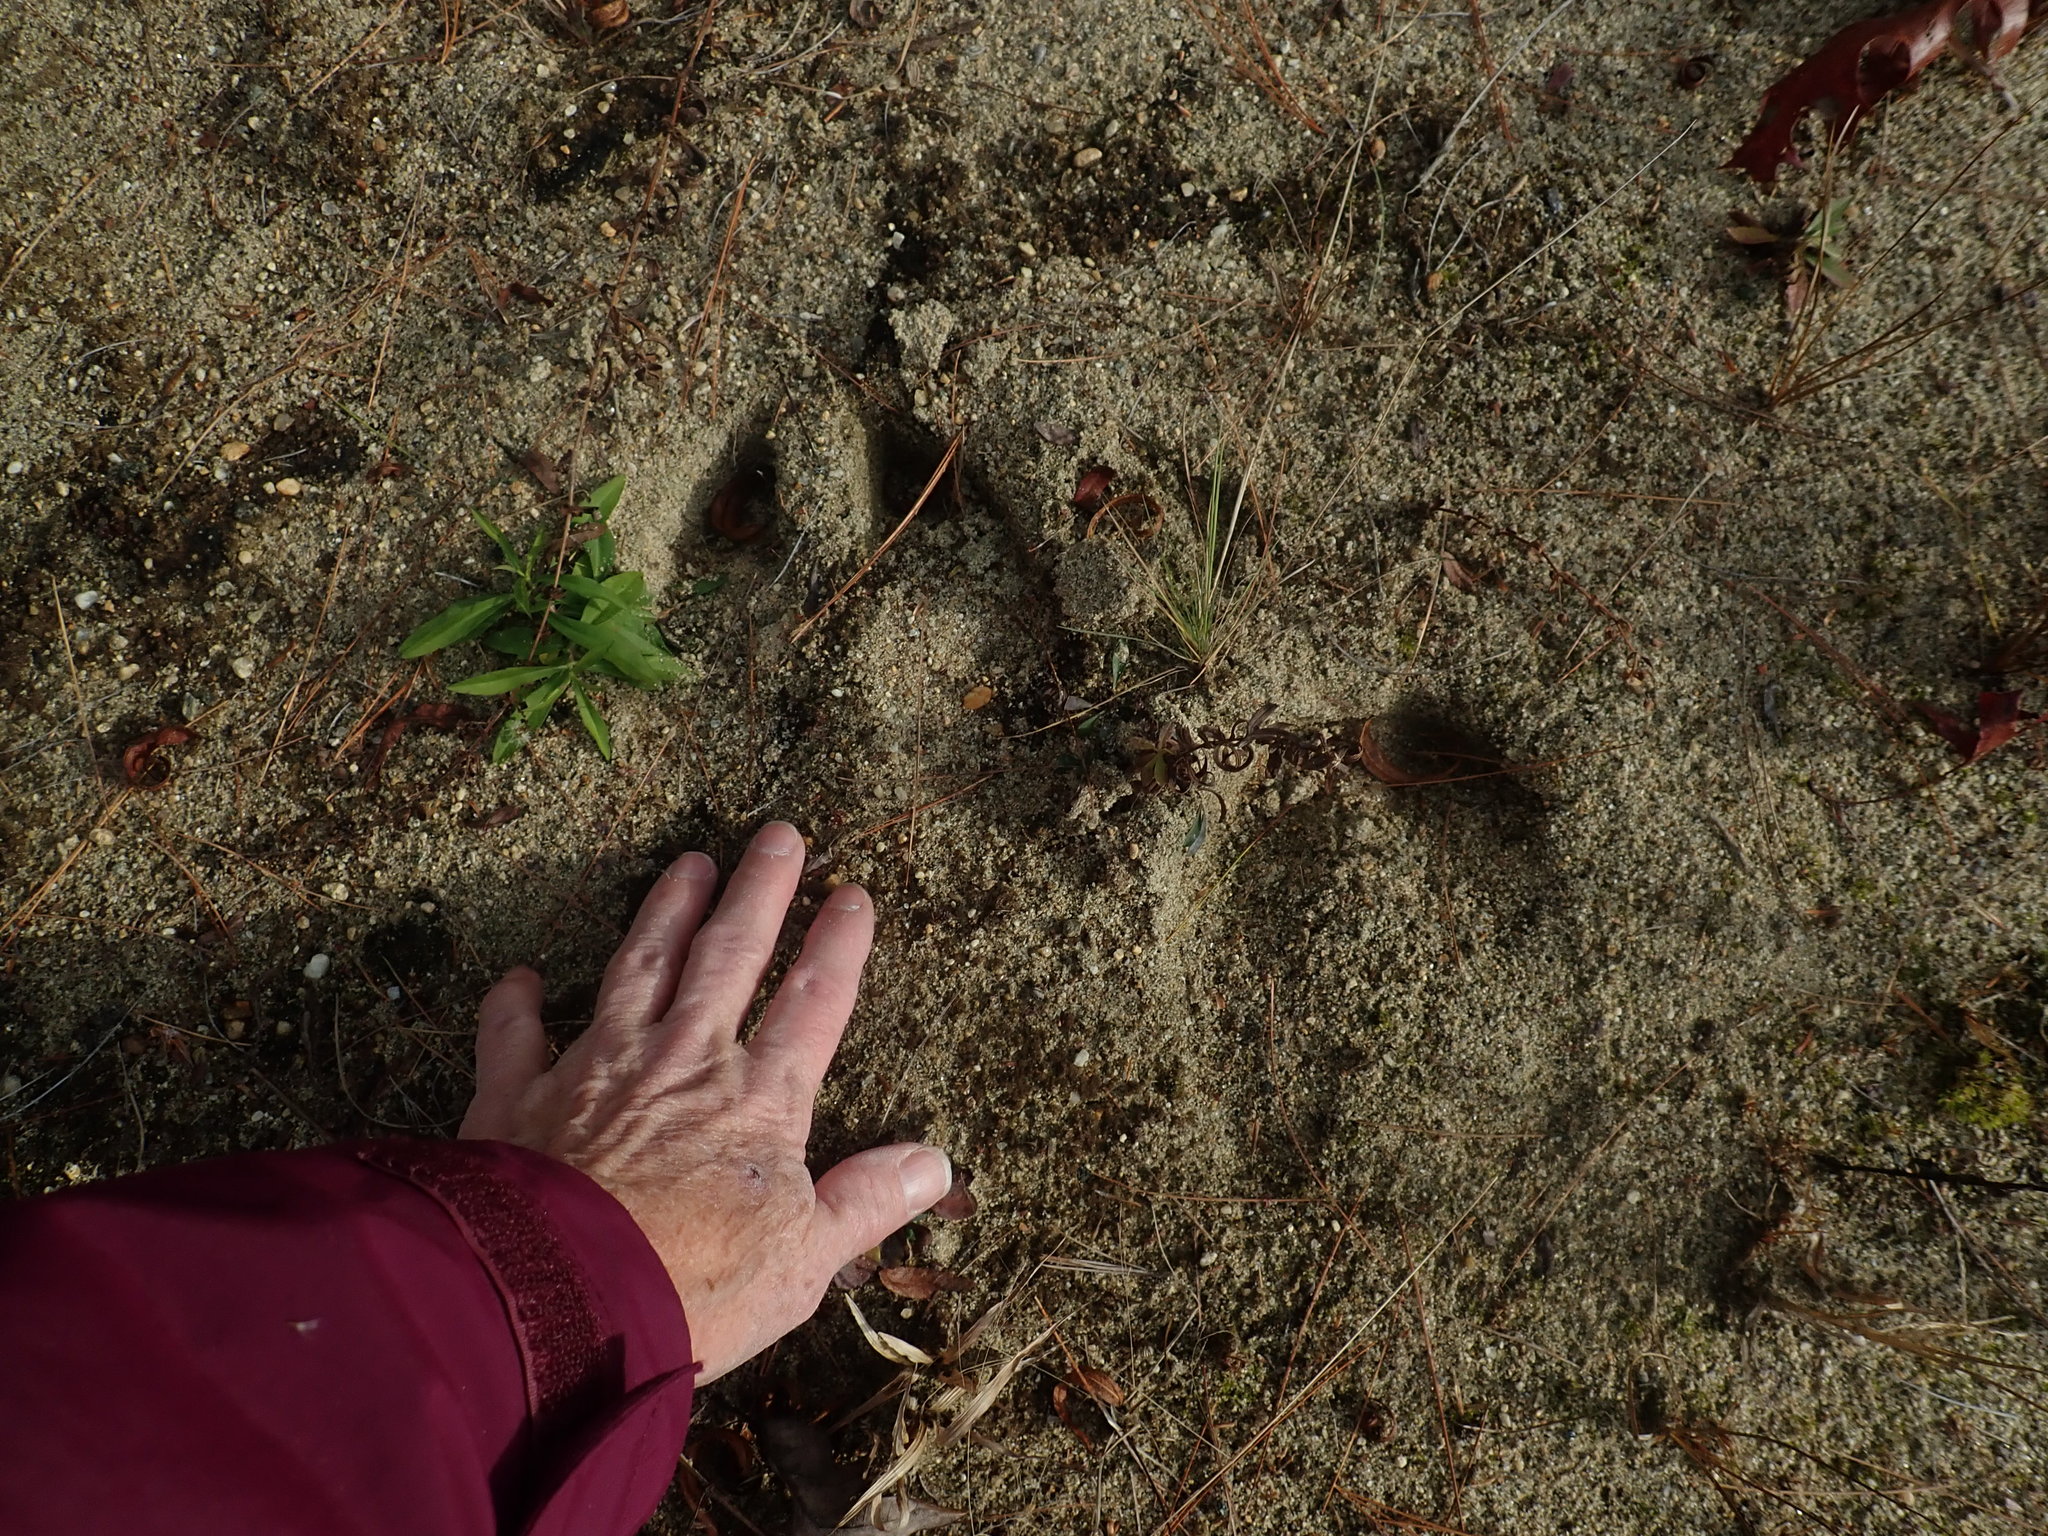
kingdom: Animalia
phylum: Chordata
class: Mammalia
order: Artiodactyla
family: Cervidae
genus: Alces
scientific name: Alces alces
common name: Moose
